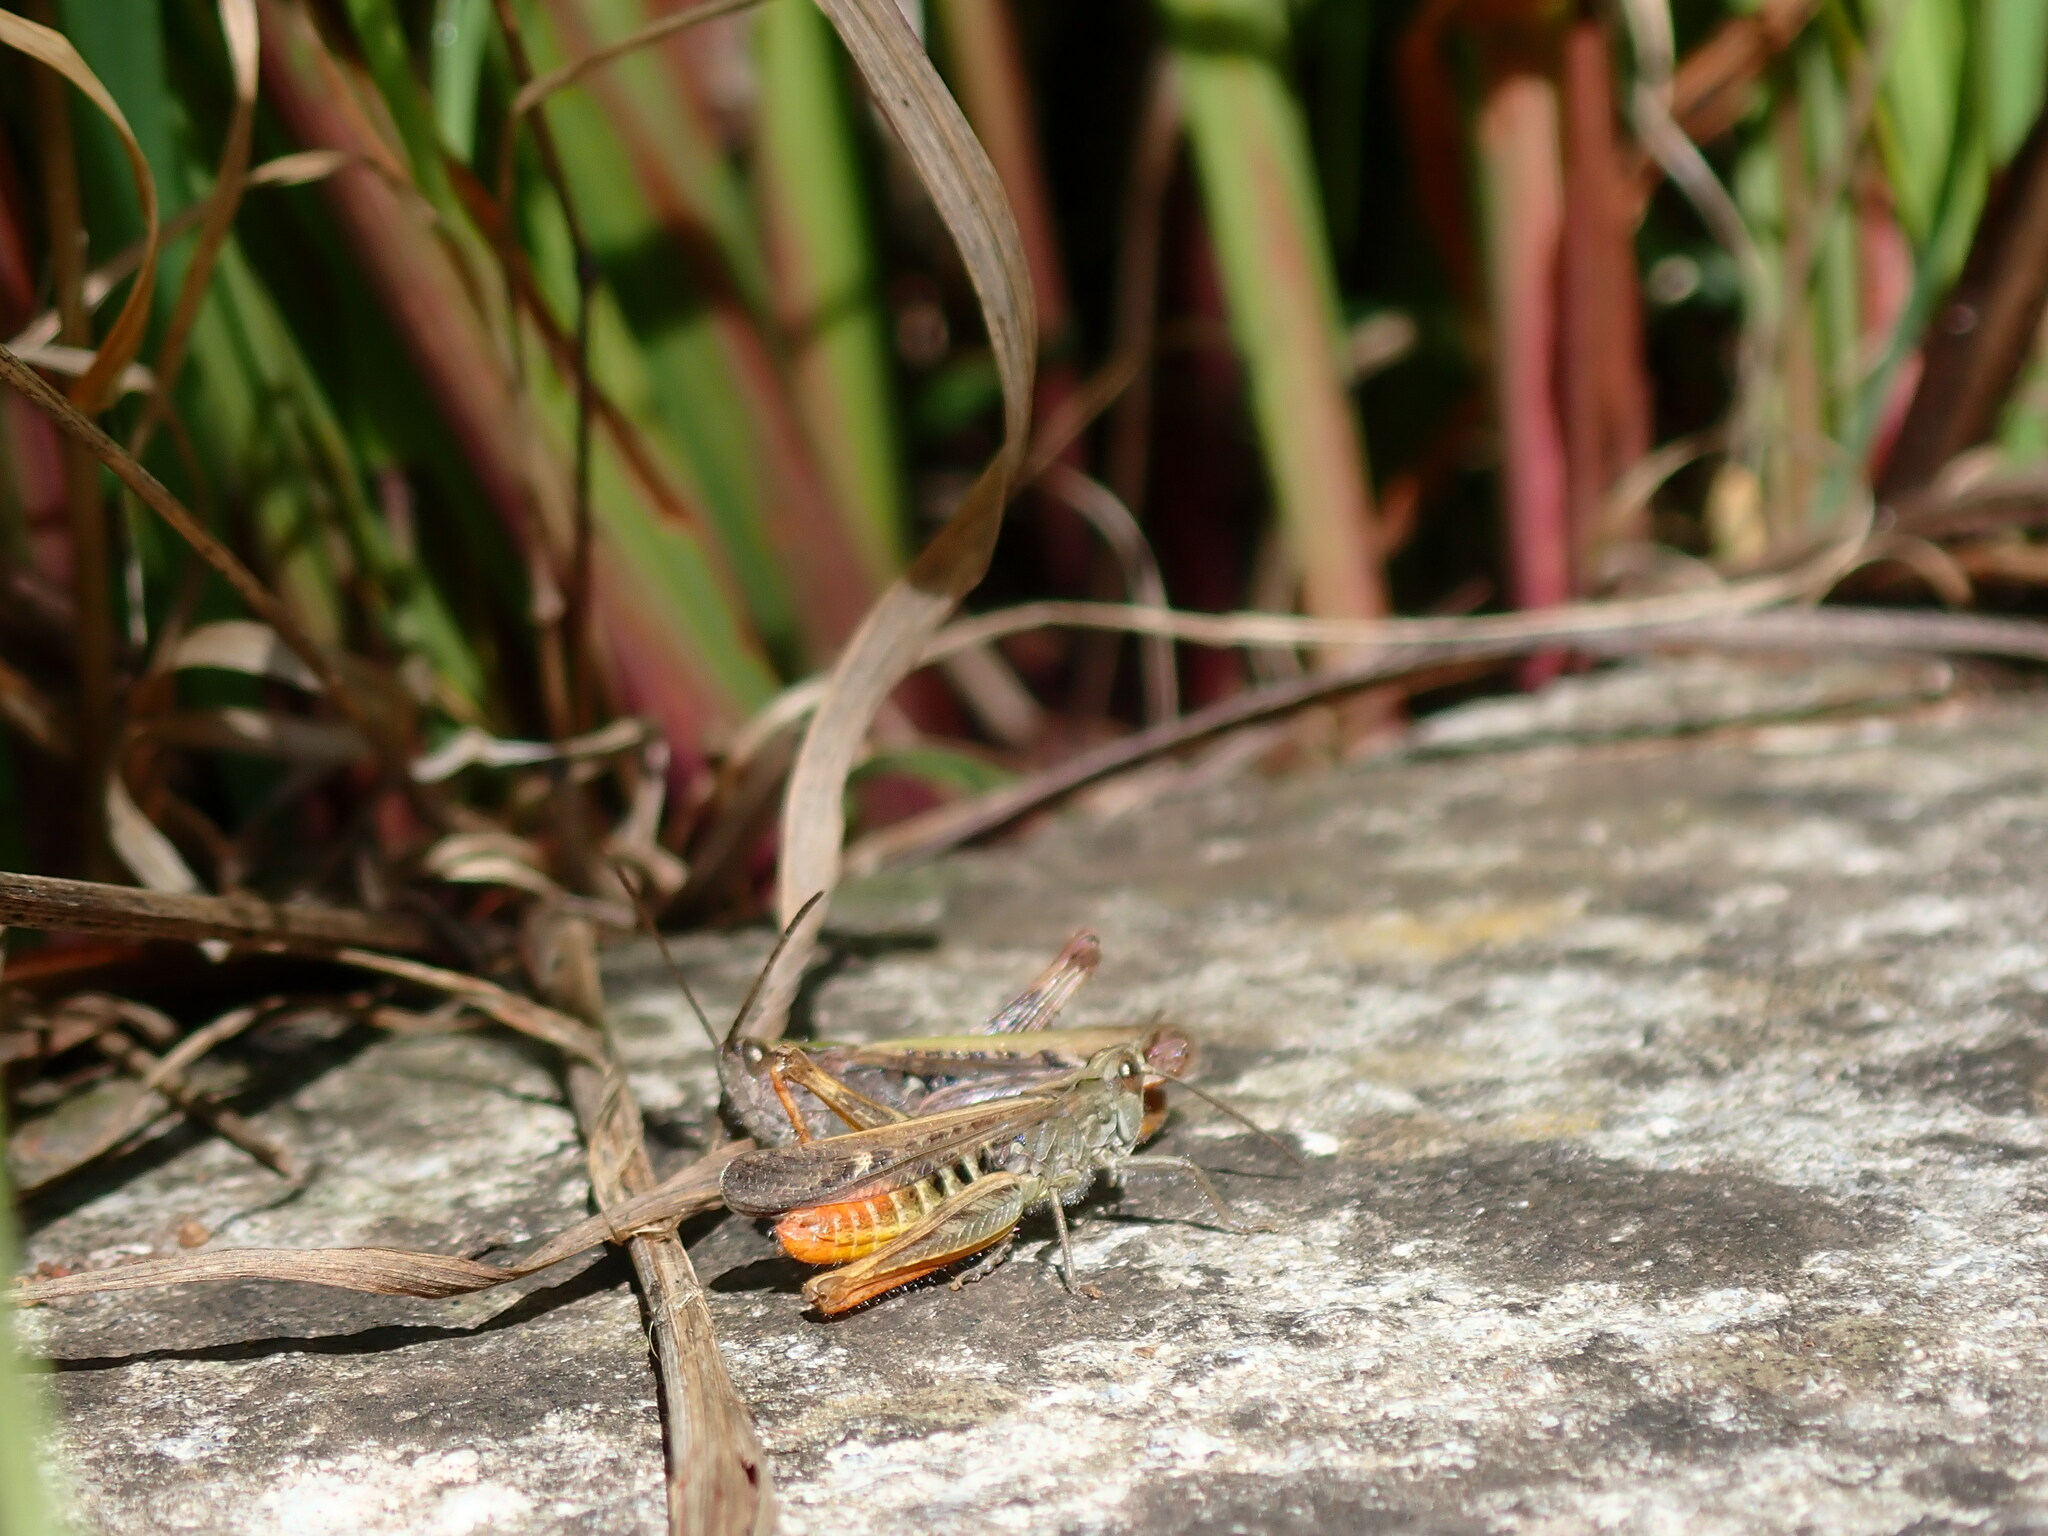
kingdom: Animalia
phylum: Arthropoda
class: Insecta
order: Orthoptera
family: Acrididae
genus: Chorthippus
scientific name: Chorthippus brunneus
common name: Field grasshopper
